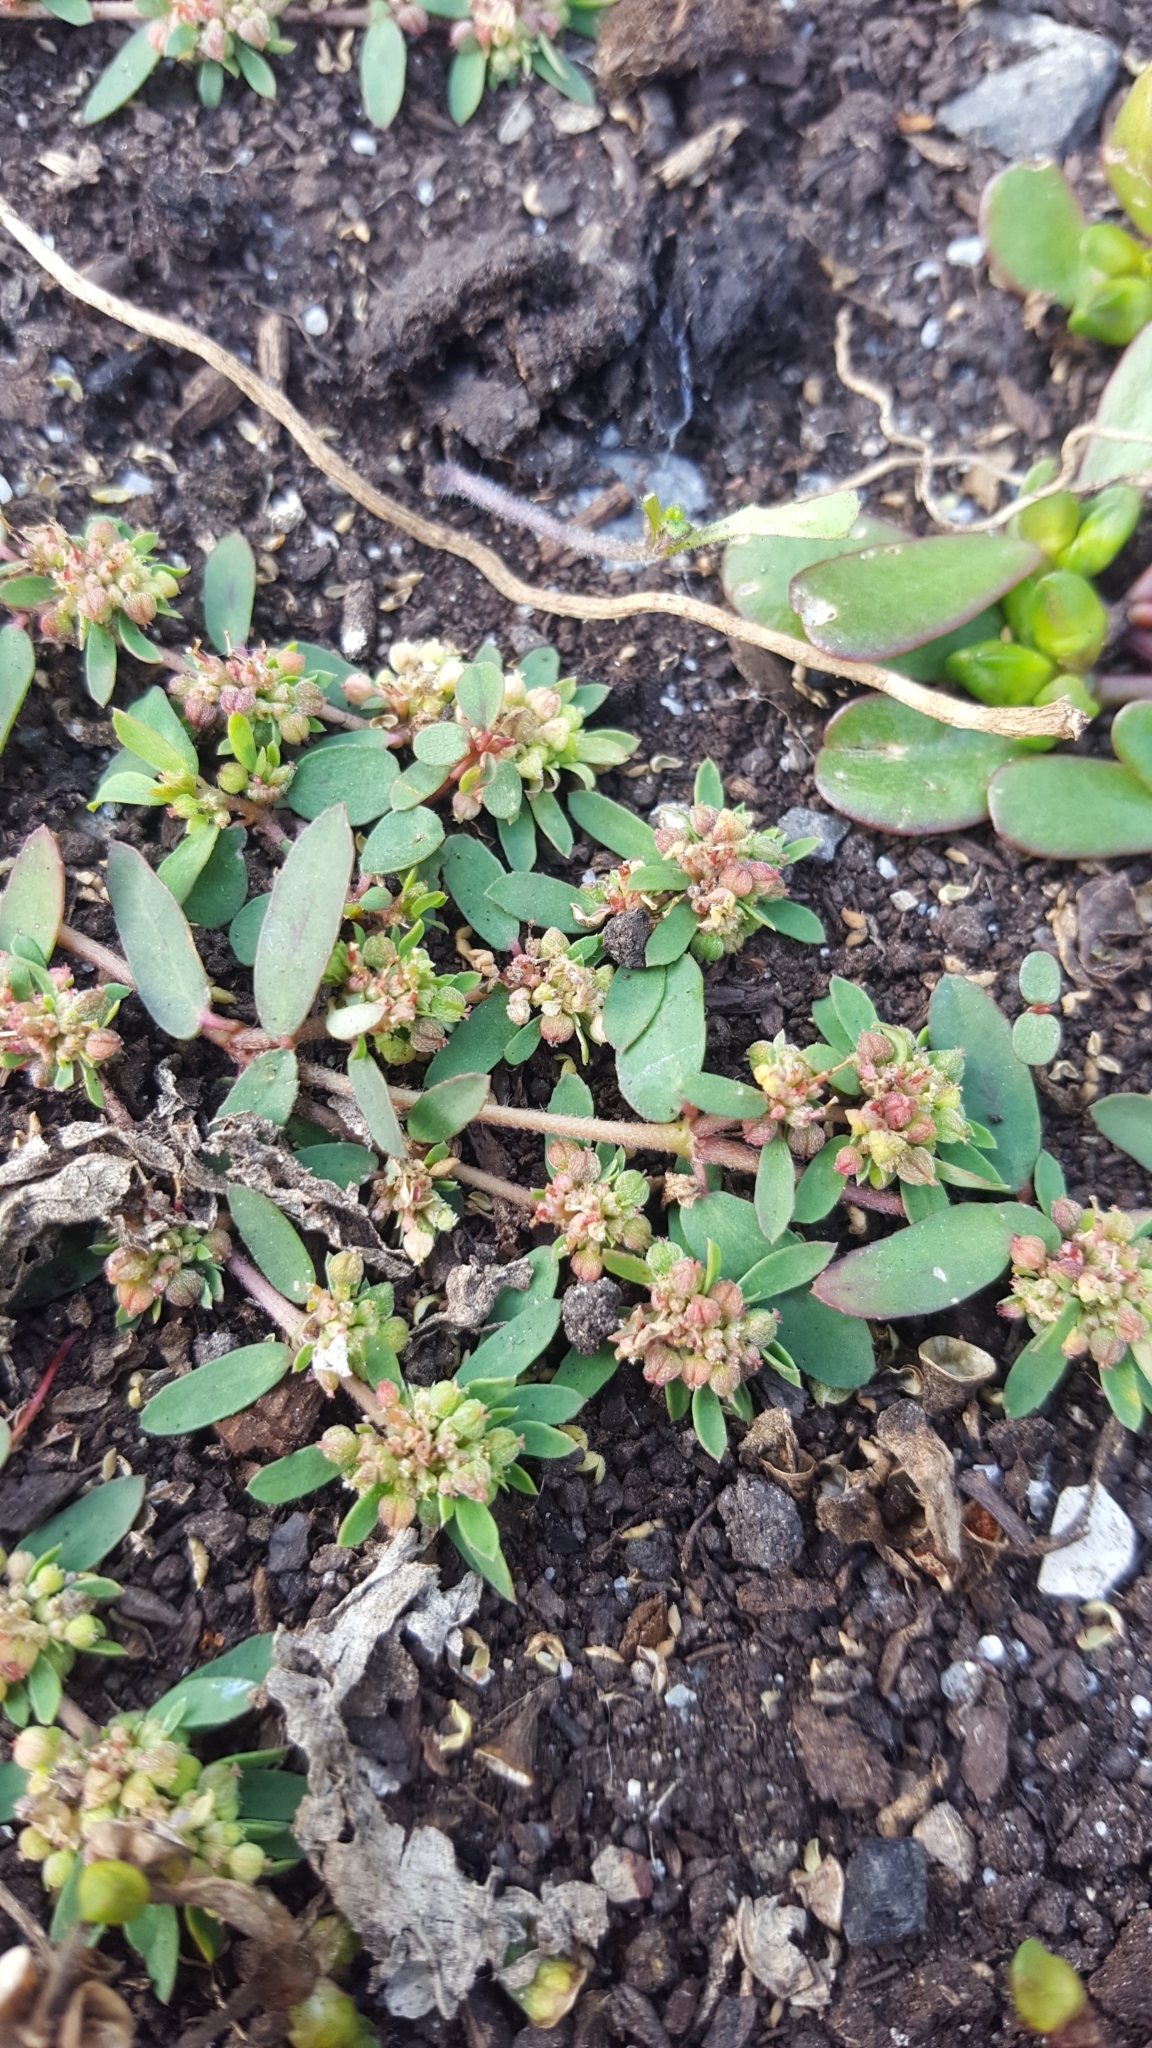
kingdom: Plantae
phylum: Tracheophyta
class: Magnoliopsida
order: Malpighiales
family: Euphorbiaceae
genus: Euphorbia
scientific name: Euphorbia maculata
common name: Spotted spurge
